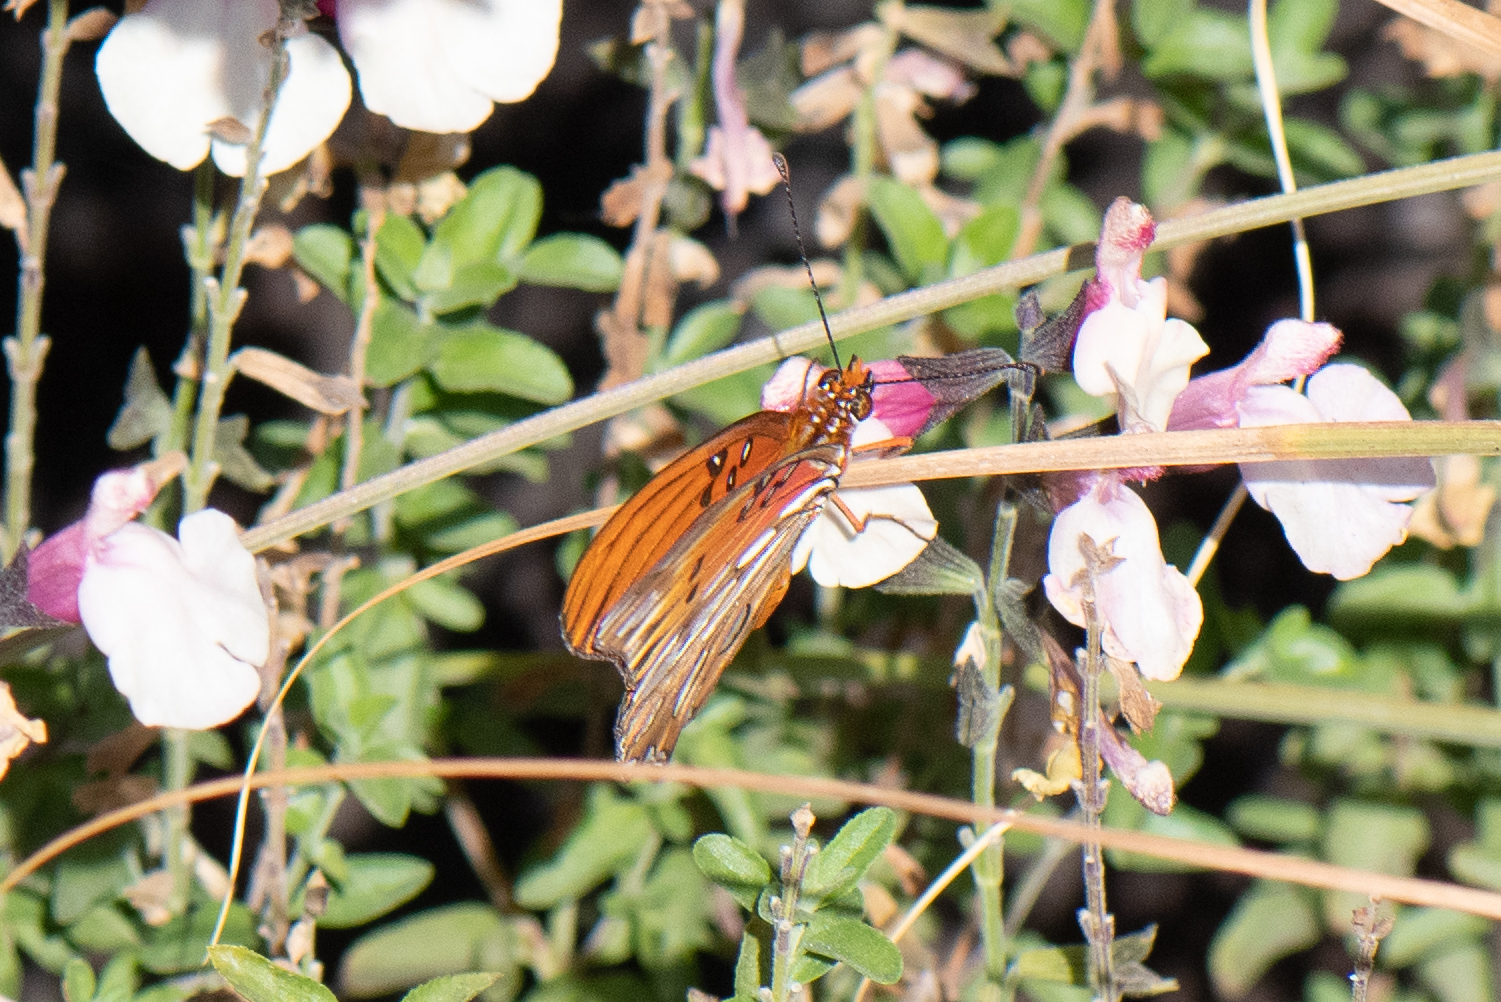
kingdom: Animalia
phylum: Arthropoda
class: Insecta
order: Lepidoptera
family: Nymphalidae
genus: Dione
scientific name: Dione vanillae
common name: Gulf fritillary
